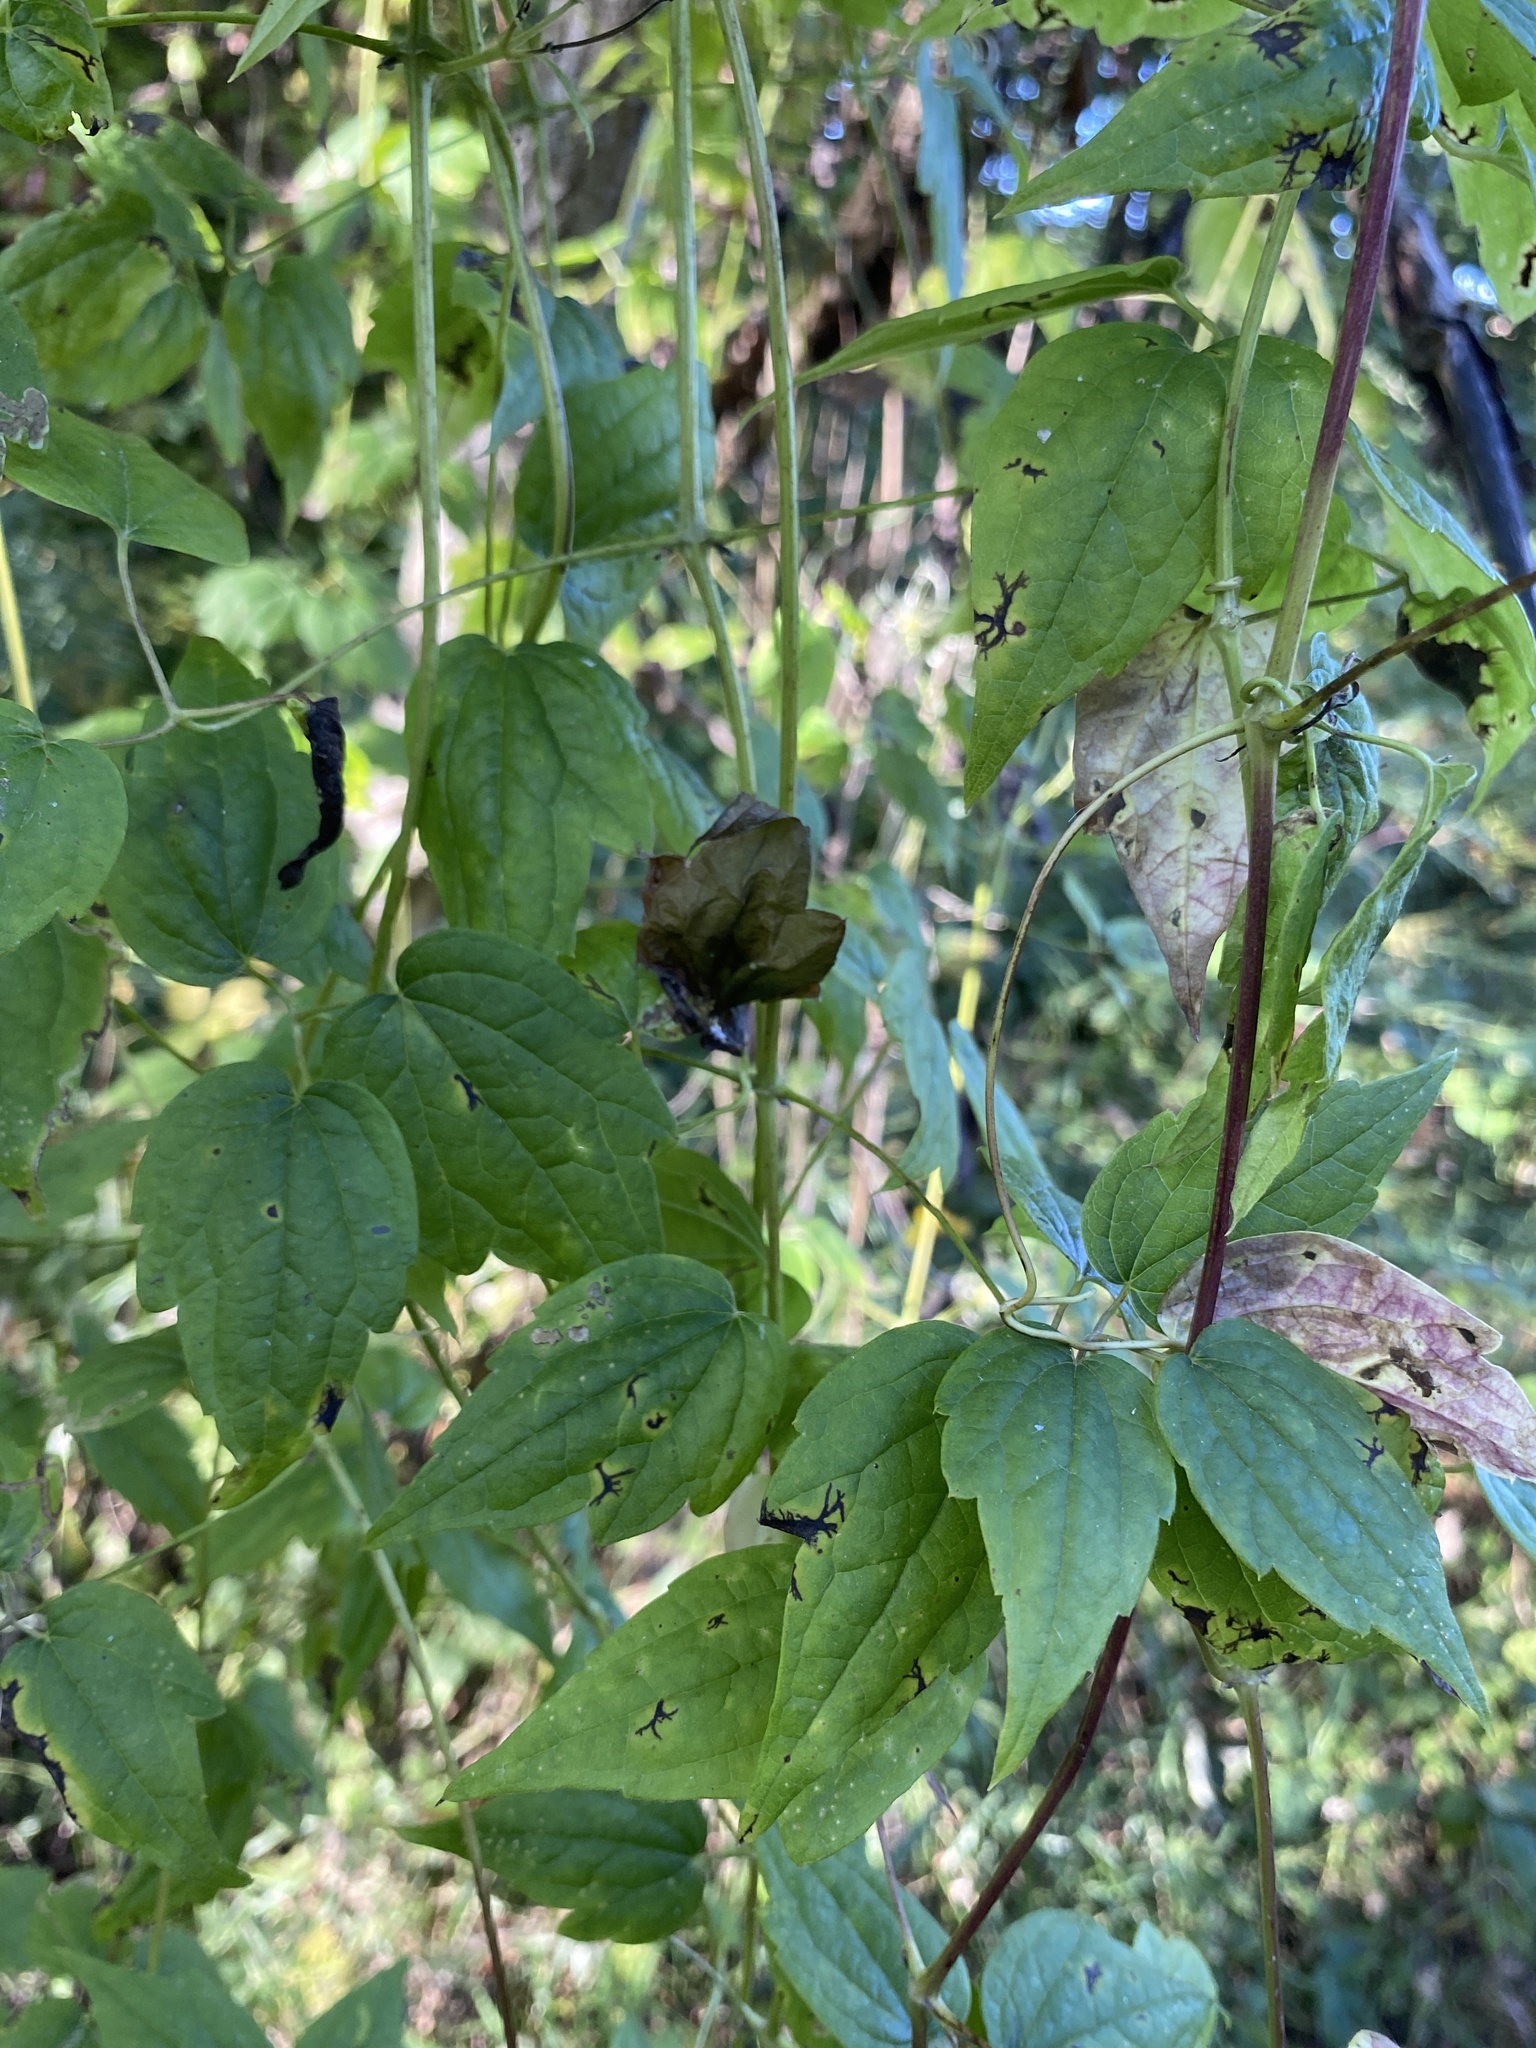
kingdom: Plantae
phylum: Tracheophyta
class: Magnoliopsida
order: Ranunculales
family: Ranunculaceae
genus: Clematis
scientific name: Clematis virginiana
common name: Virgin's-bower
